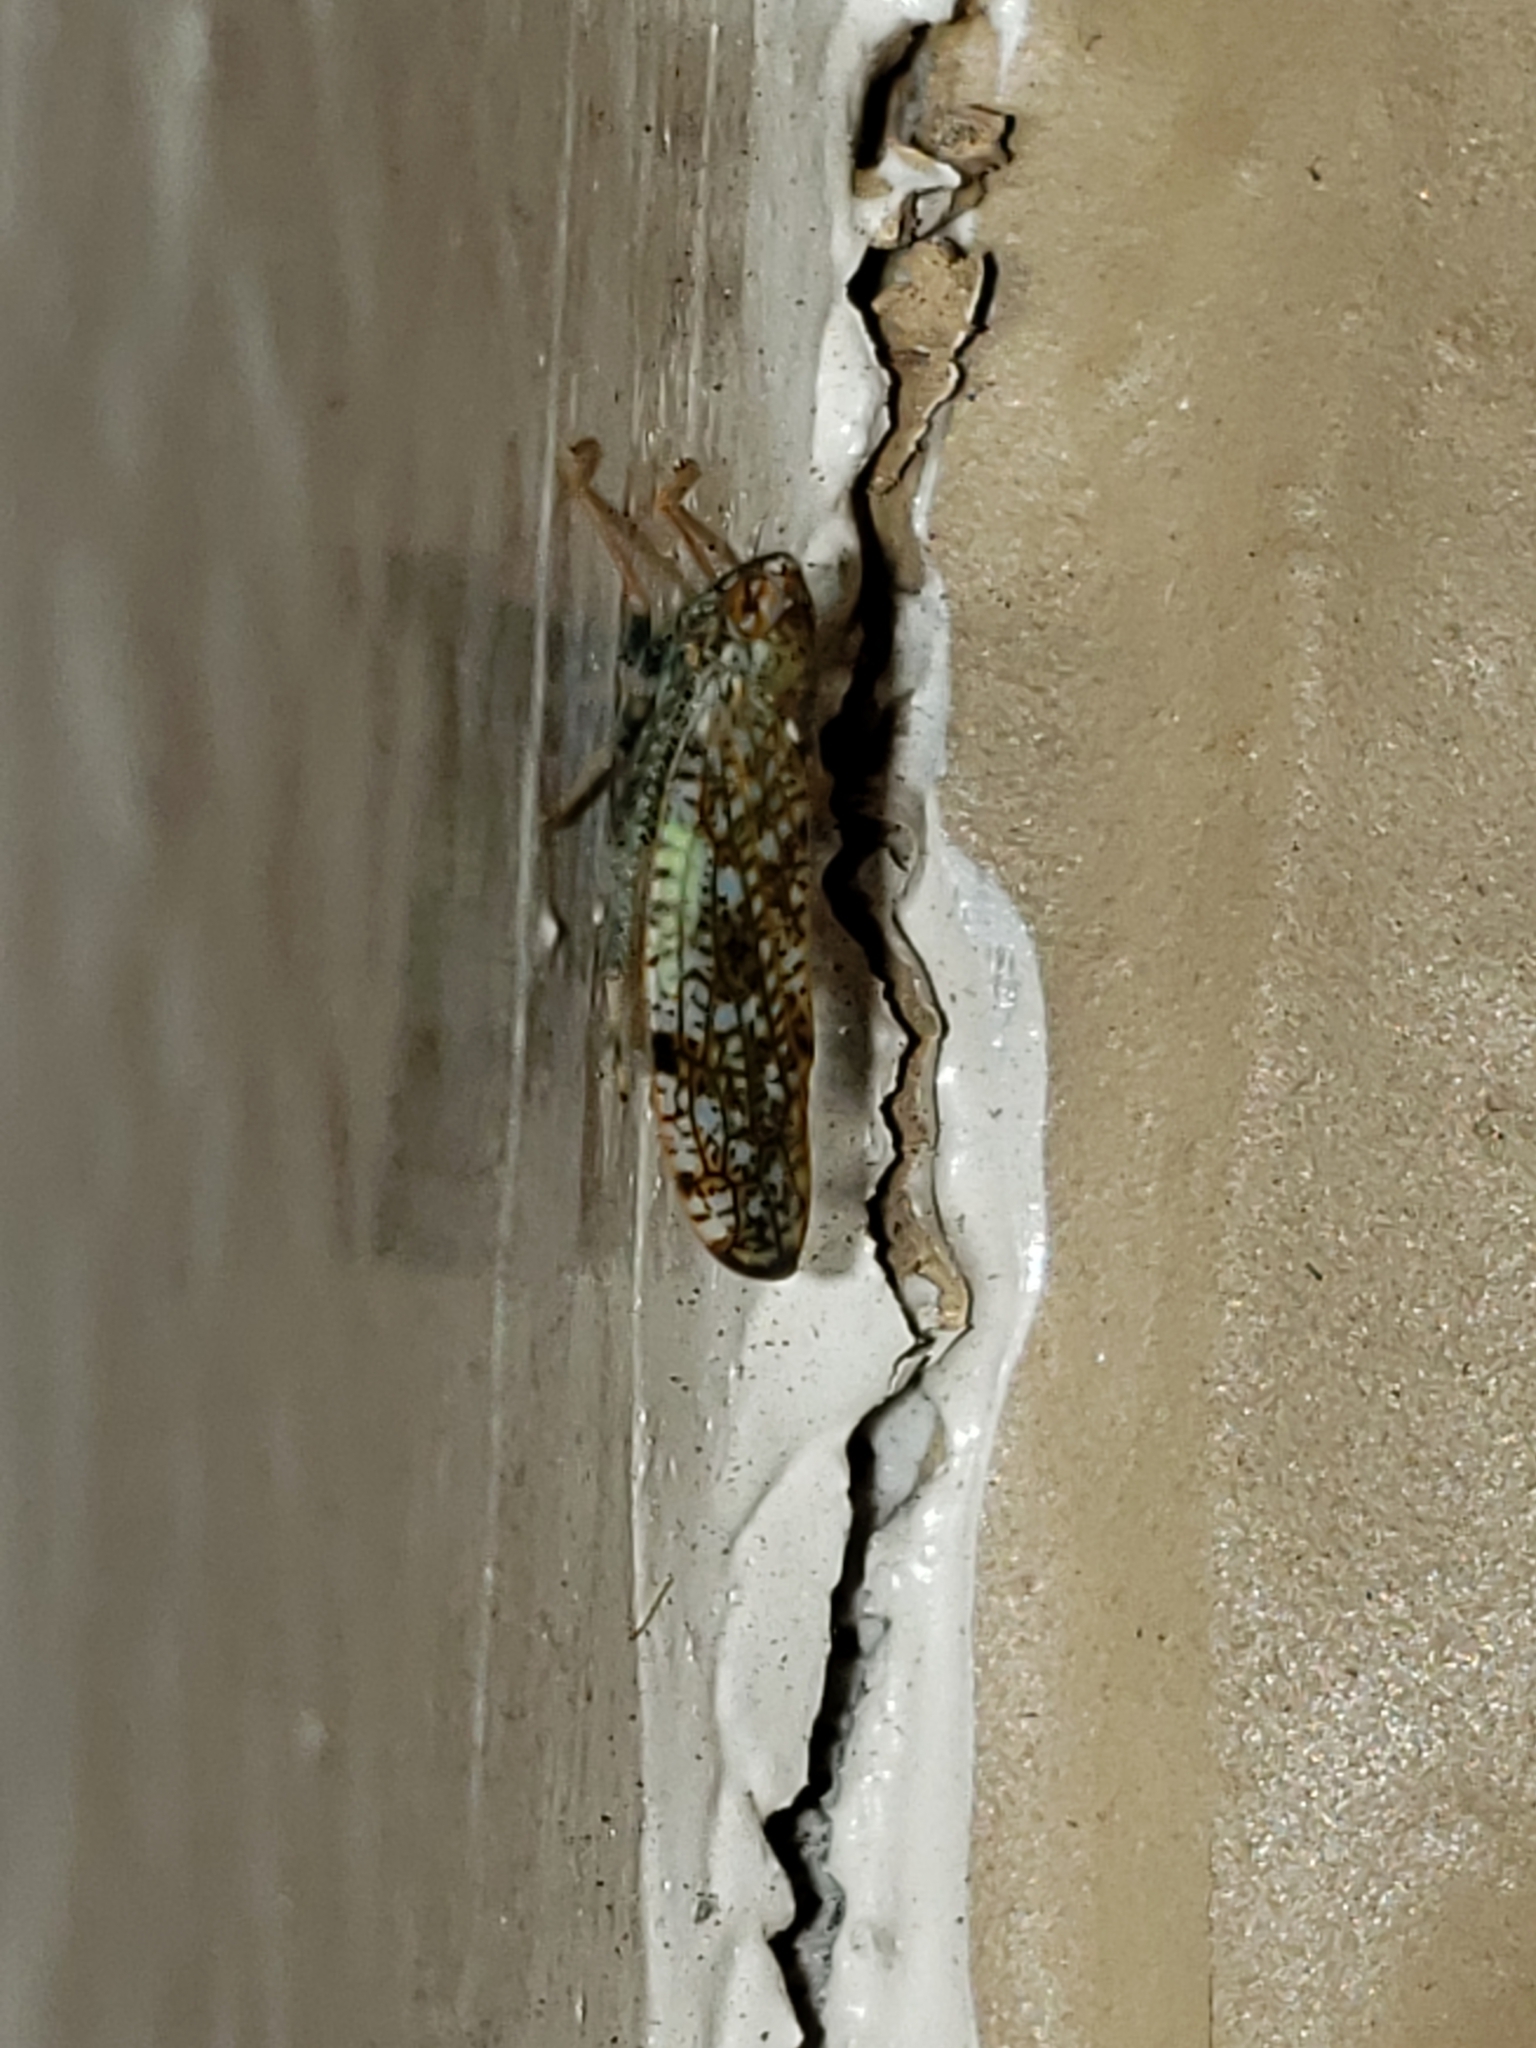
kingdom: Animalia
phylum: Arthropoda
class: Insecta
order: Hemiptera
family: Cicadellidae
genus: Orientus
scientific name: Orientus ishidae
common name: Japanese leafhopper
